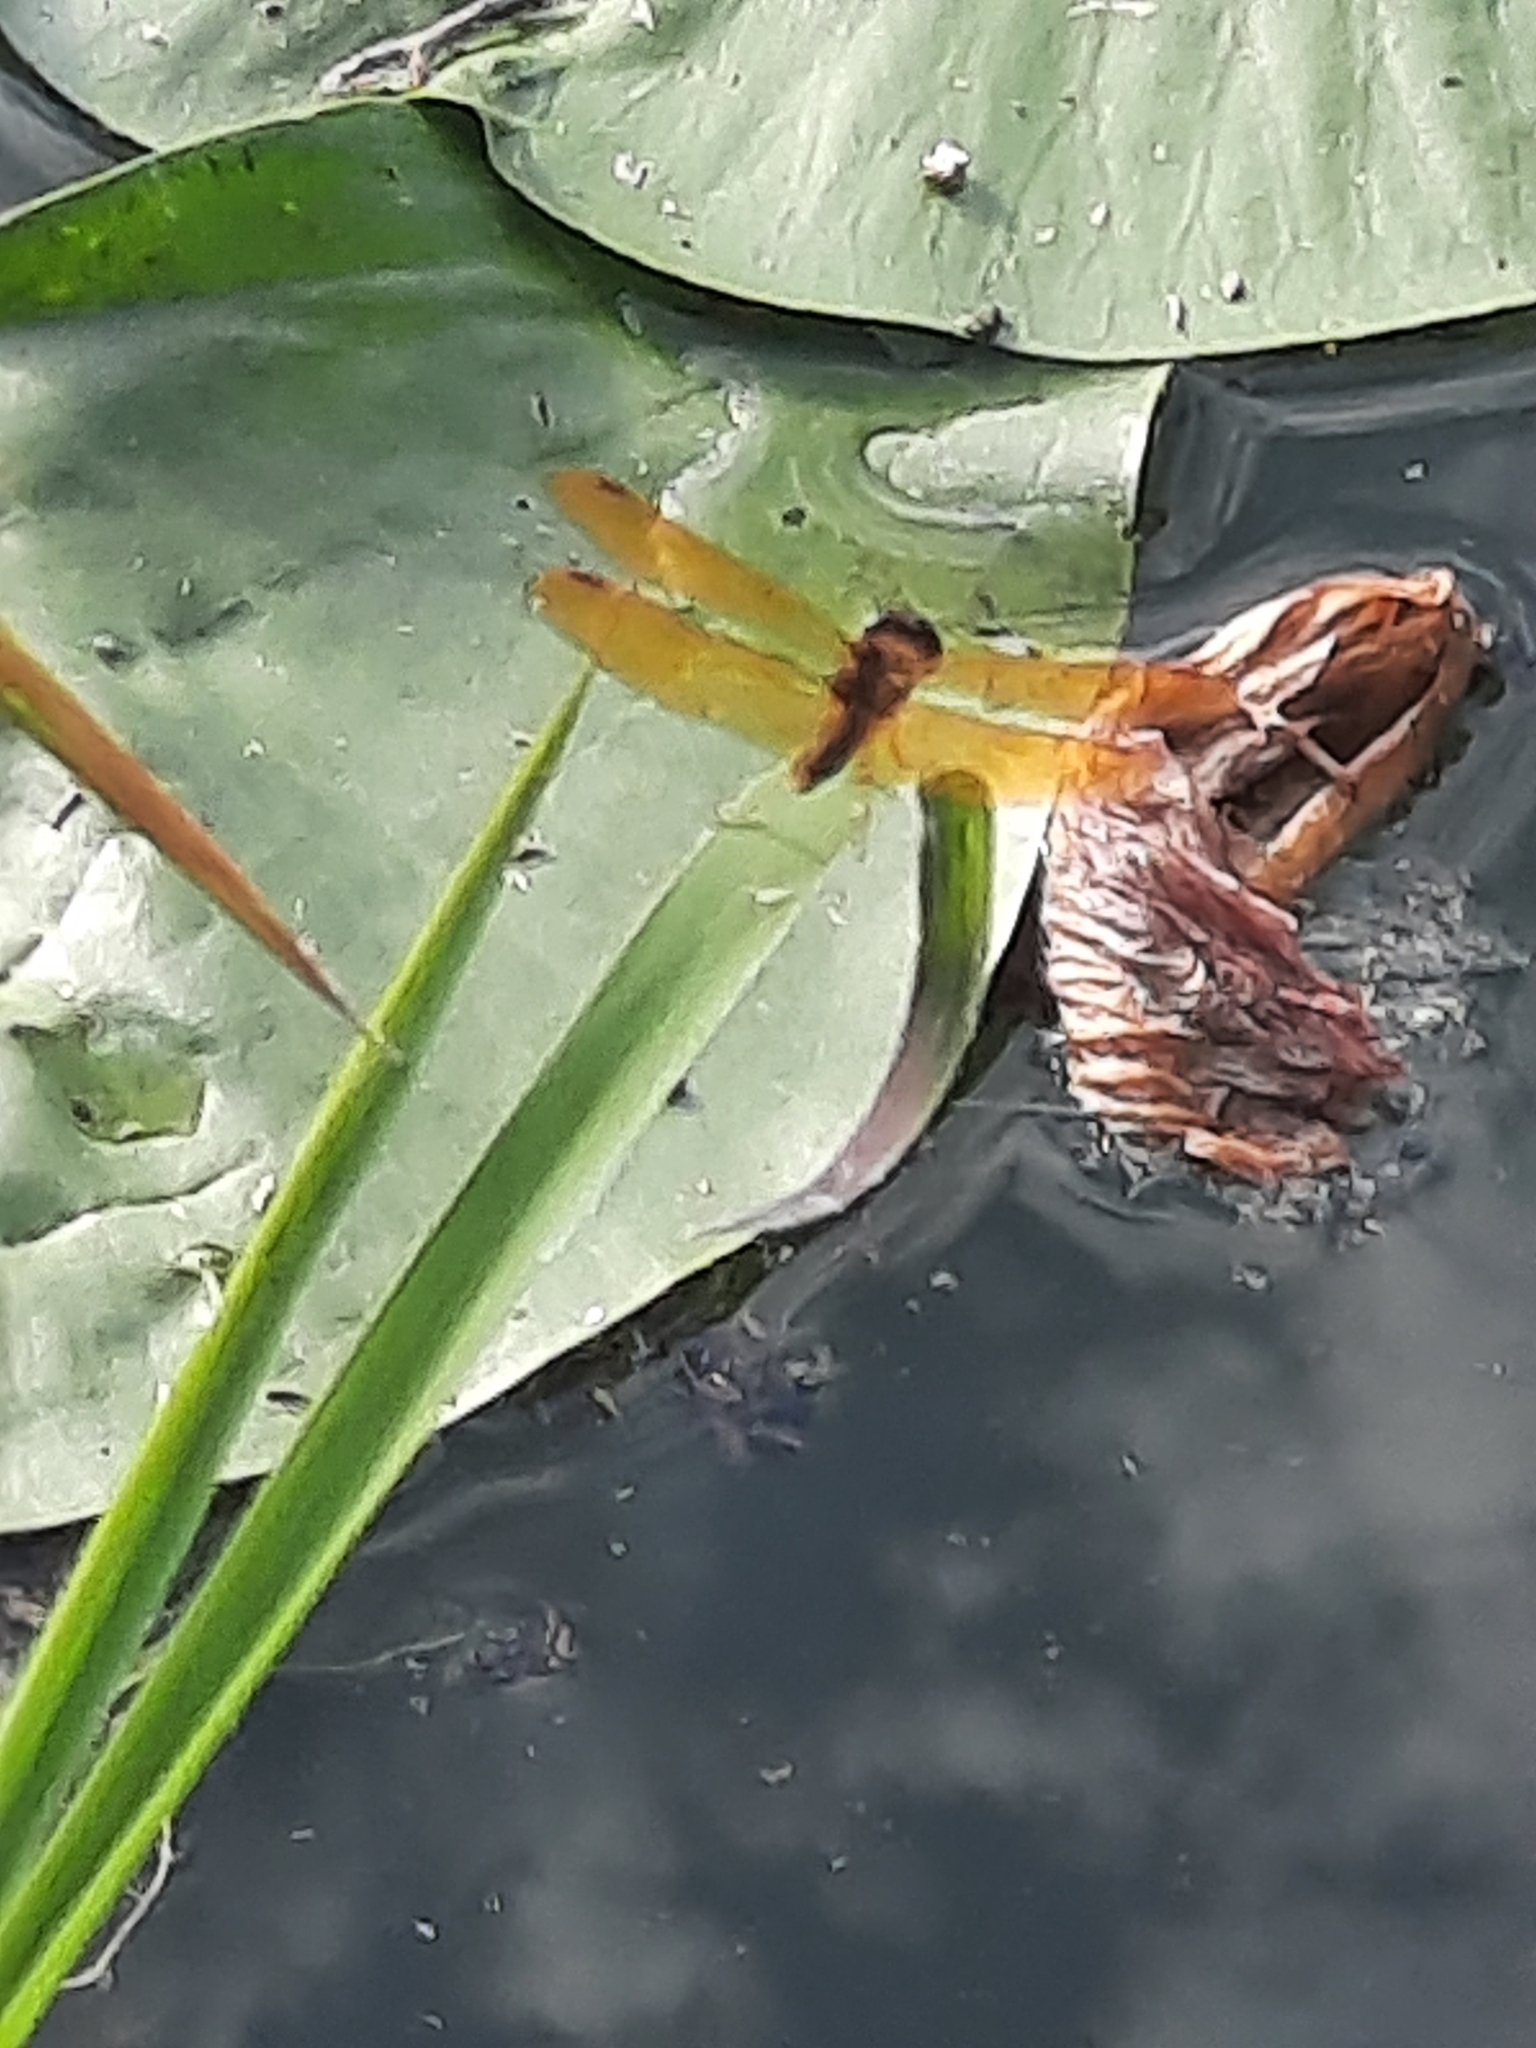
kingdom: Animalia
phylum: Arthropoda
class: Insecta
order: Odonata
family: Libellulidae
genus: Perithemis
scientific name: Perithemis tenera
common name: Eastern amberwing
